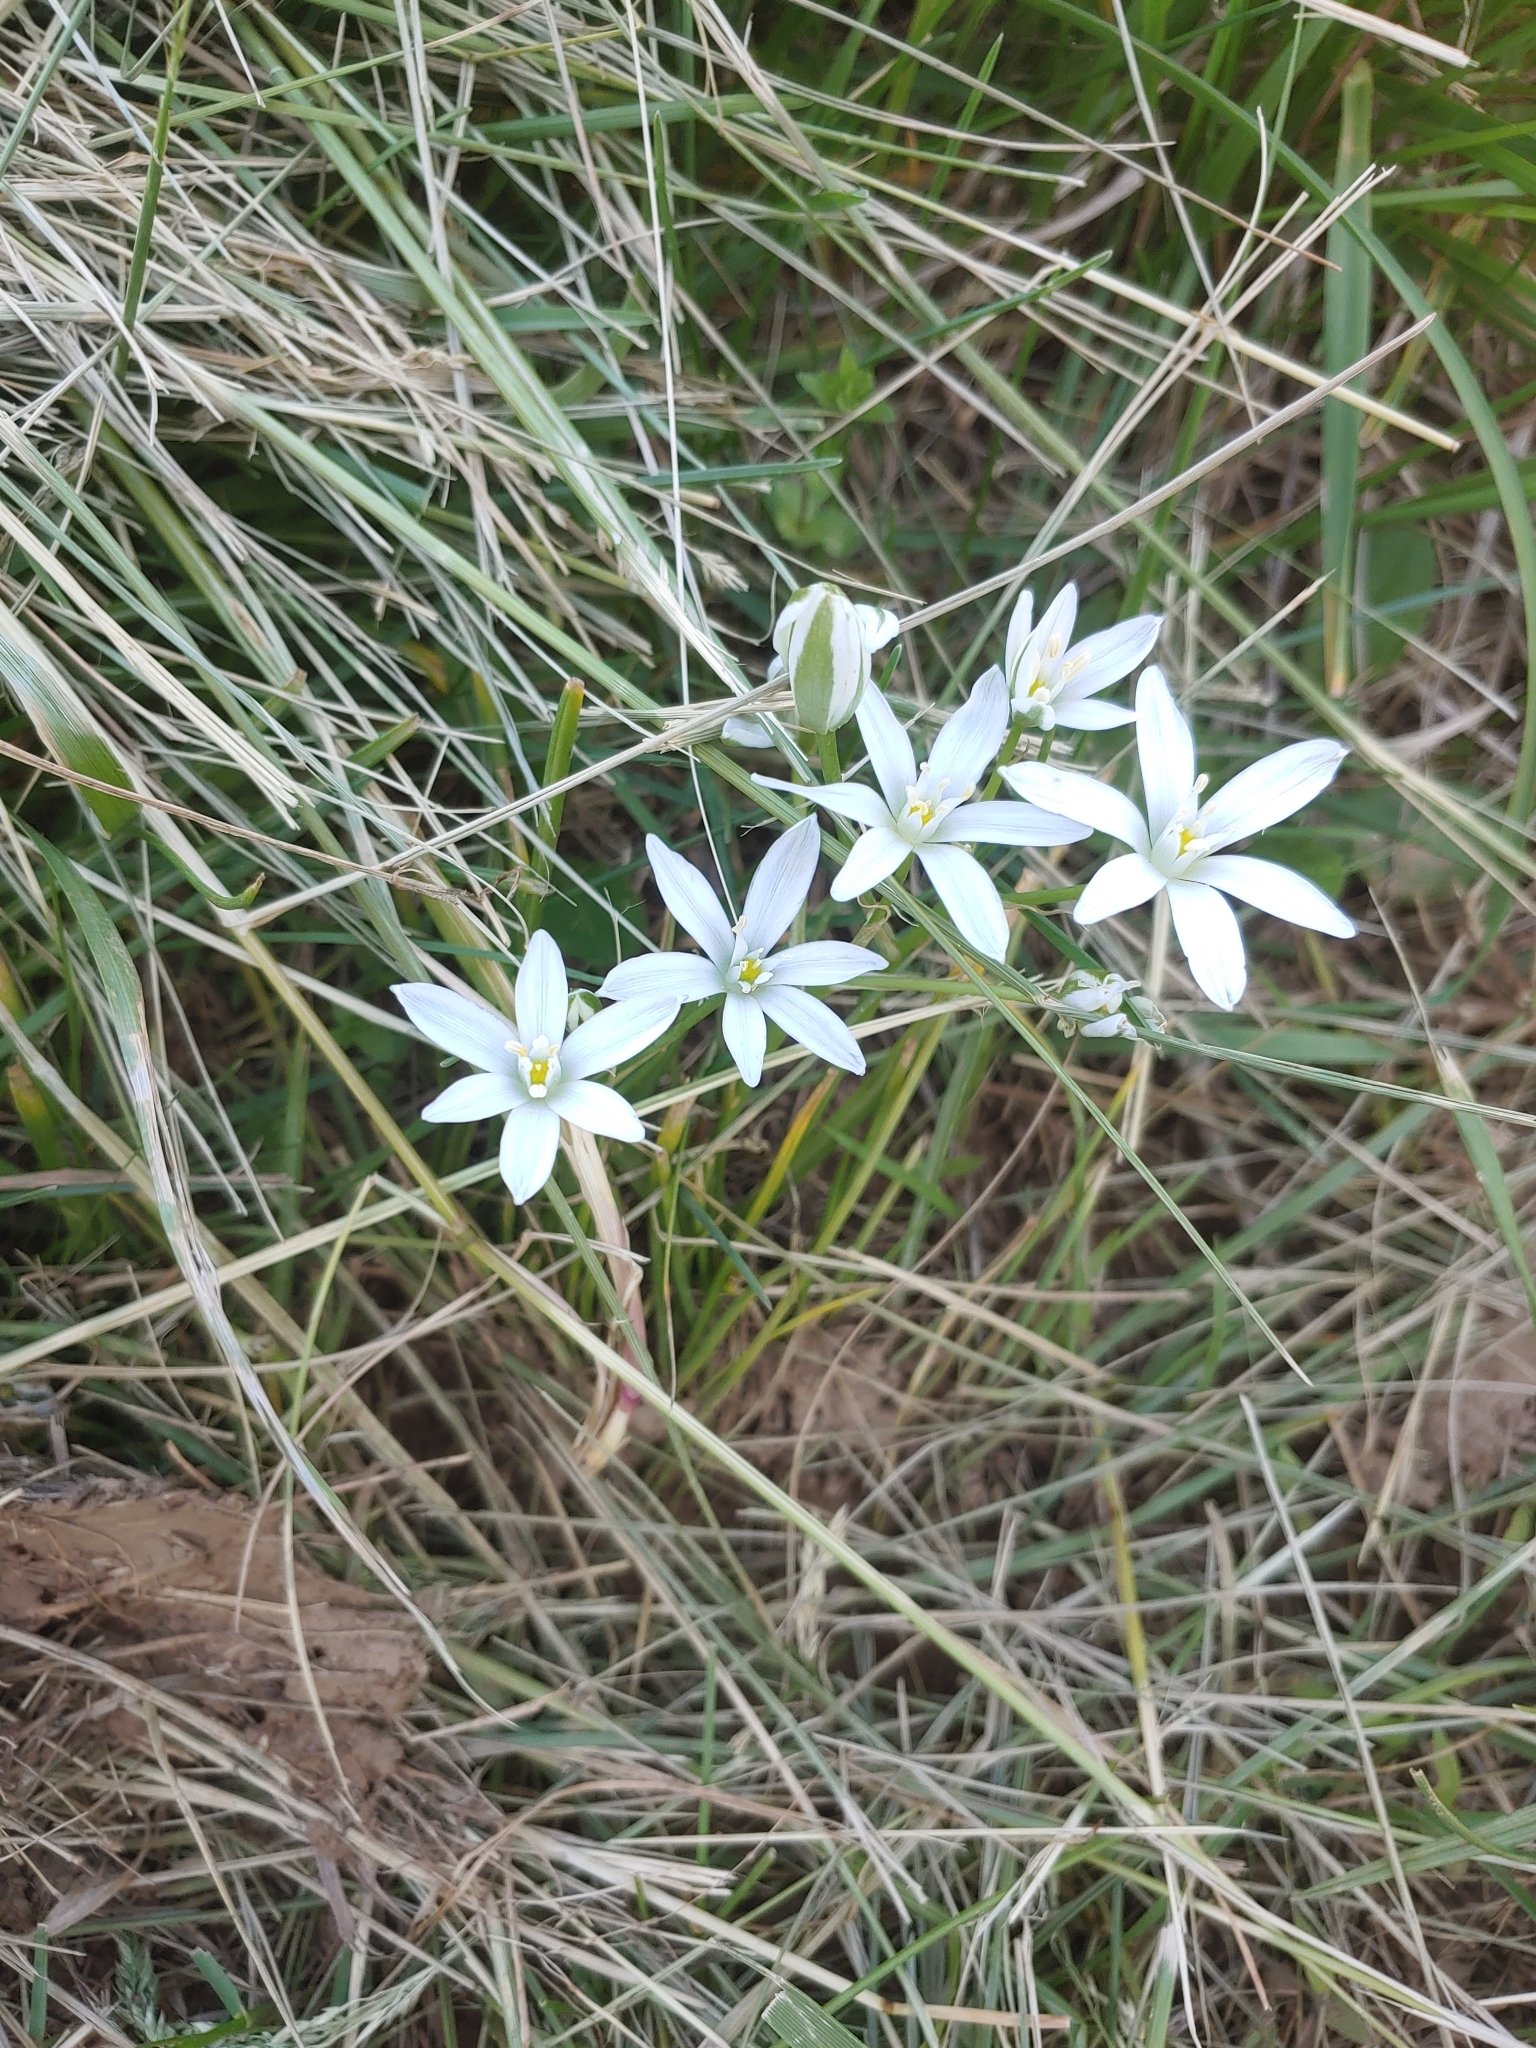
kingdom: Plantae
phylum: Tracheophyta
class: Liliopsida
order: Asparagales
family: Asparagaceae
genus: Ornithogalum
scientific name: Ornithogalum umbellatum
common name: Garden star-of-bethlehem
